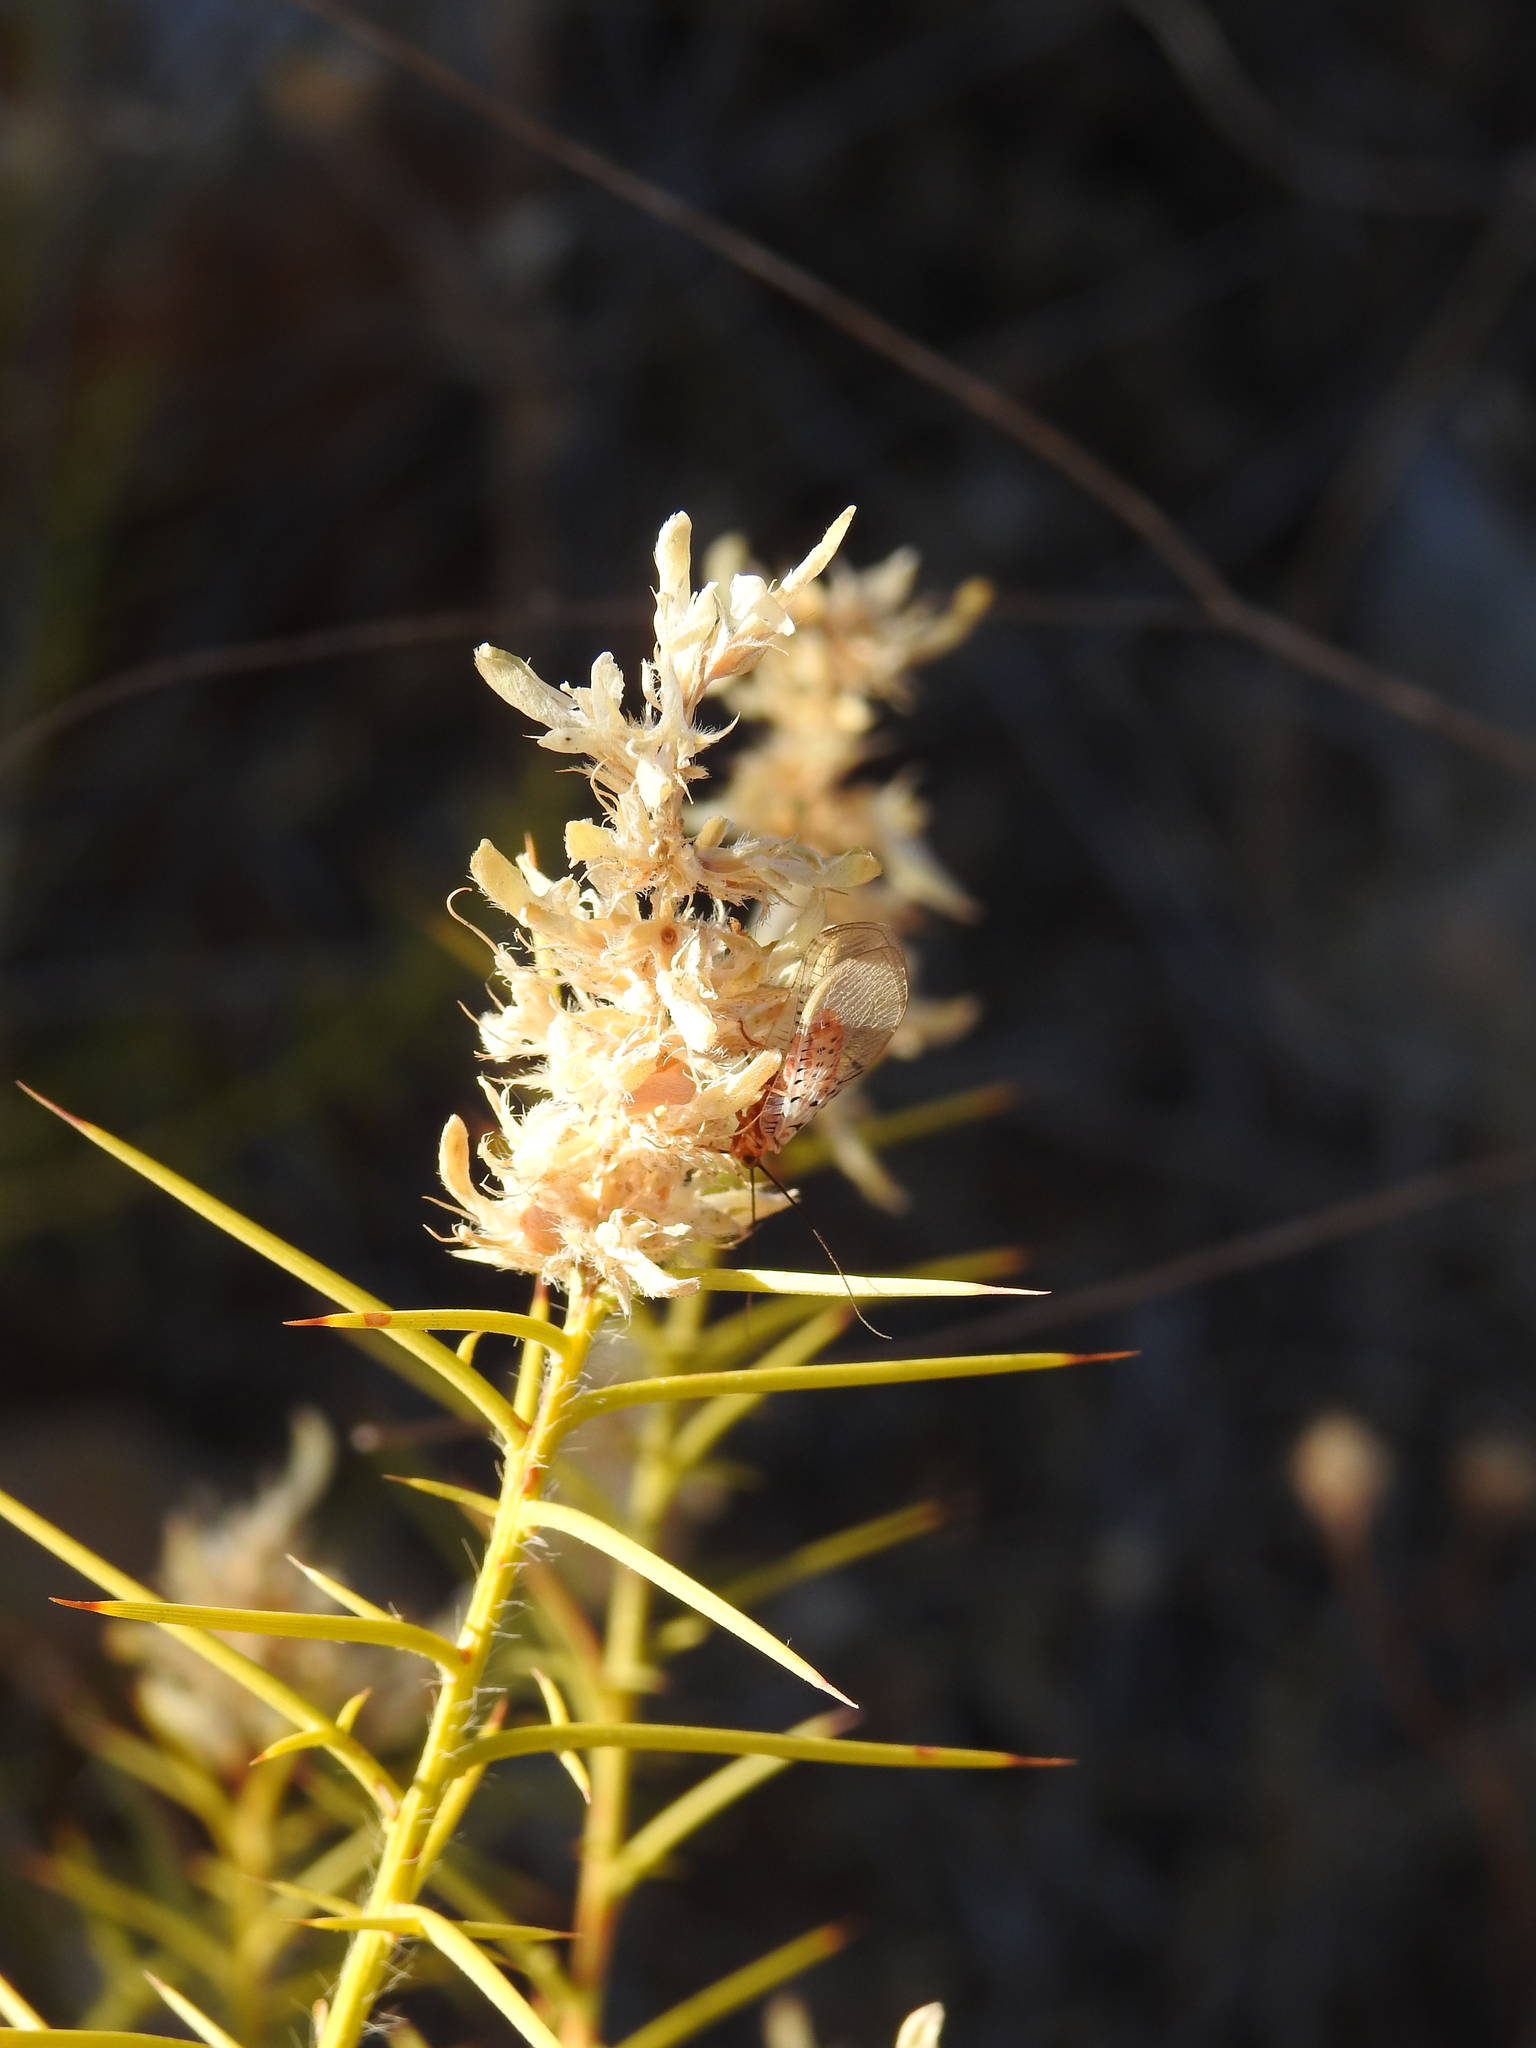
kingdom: Plantae
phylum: Tracheophyta
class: Magnoliopsida
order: Fabales
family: Fabaceae
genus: Genista
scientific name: Genista hirsuta
